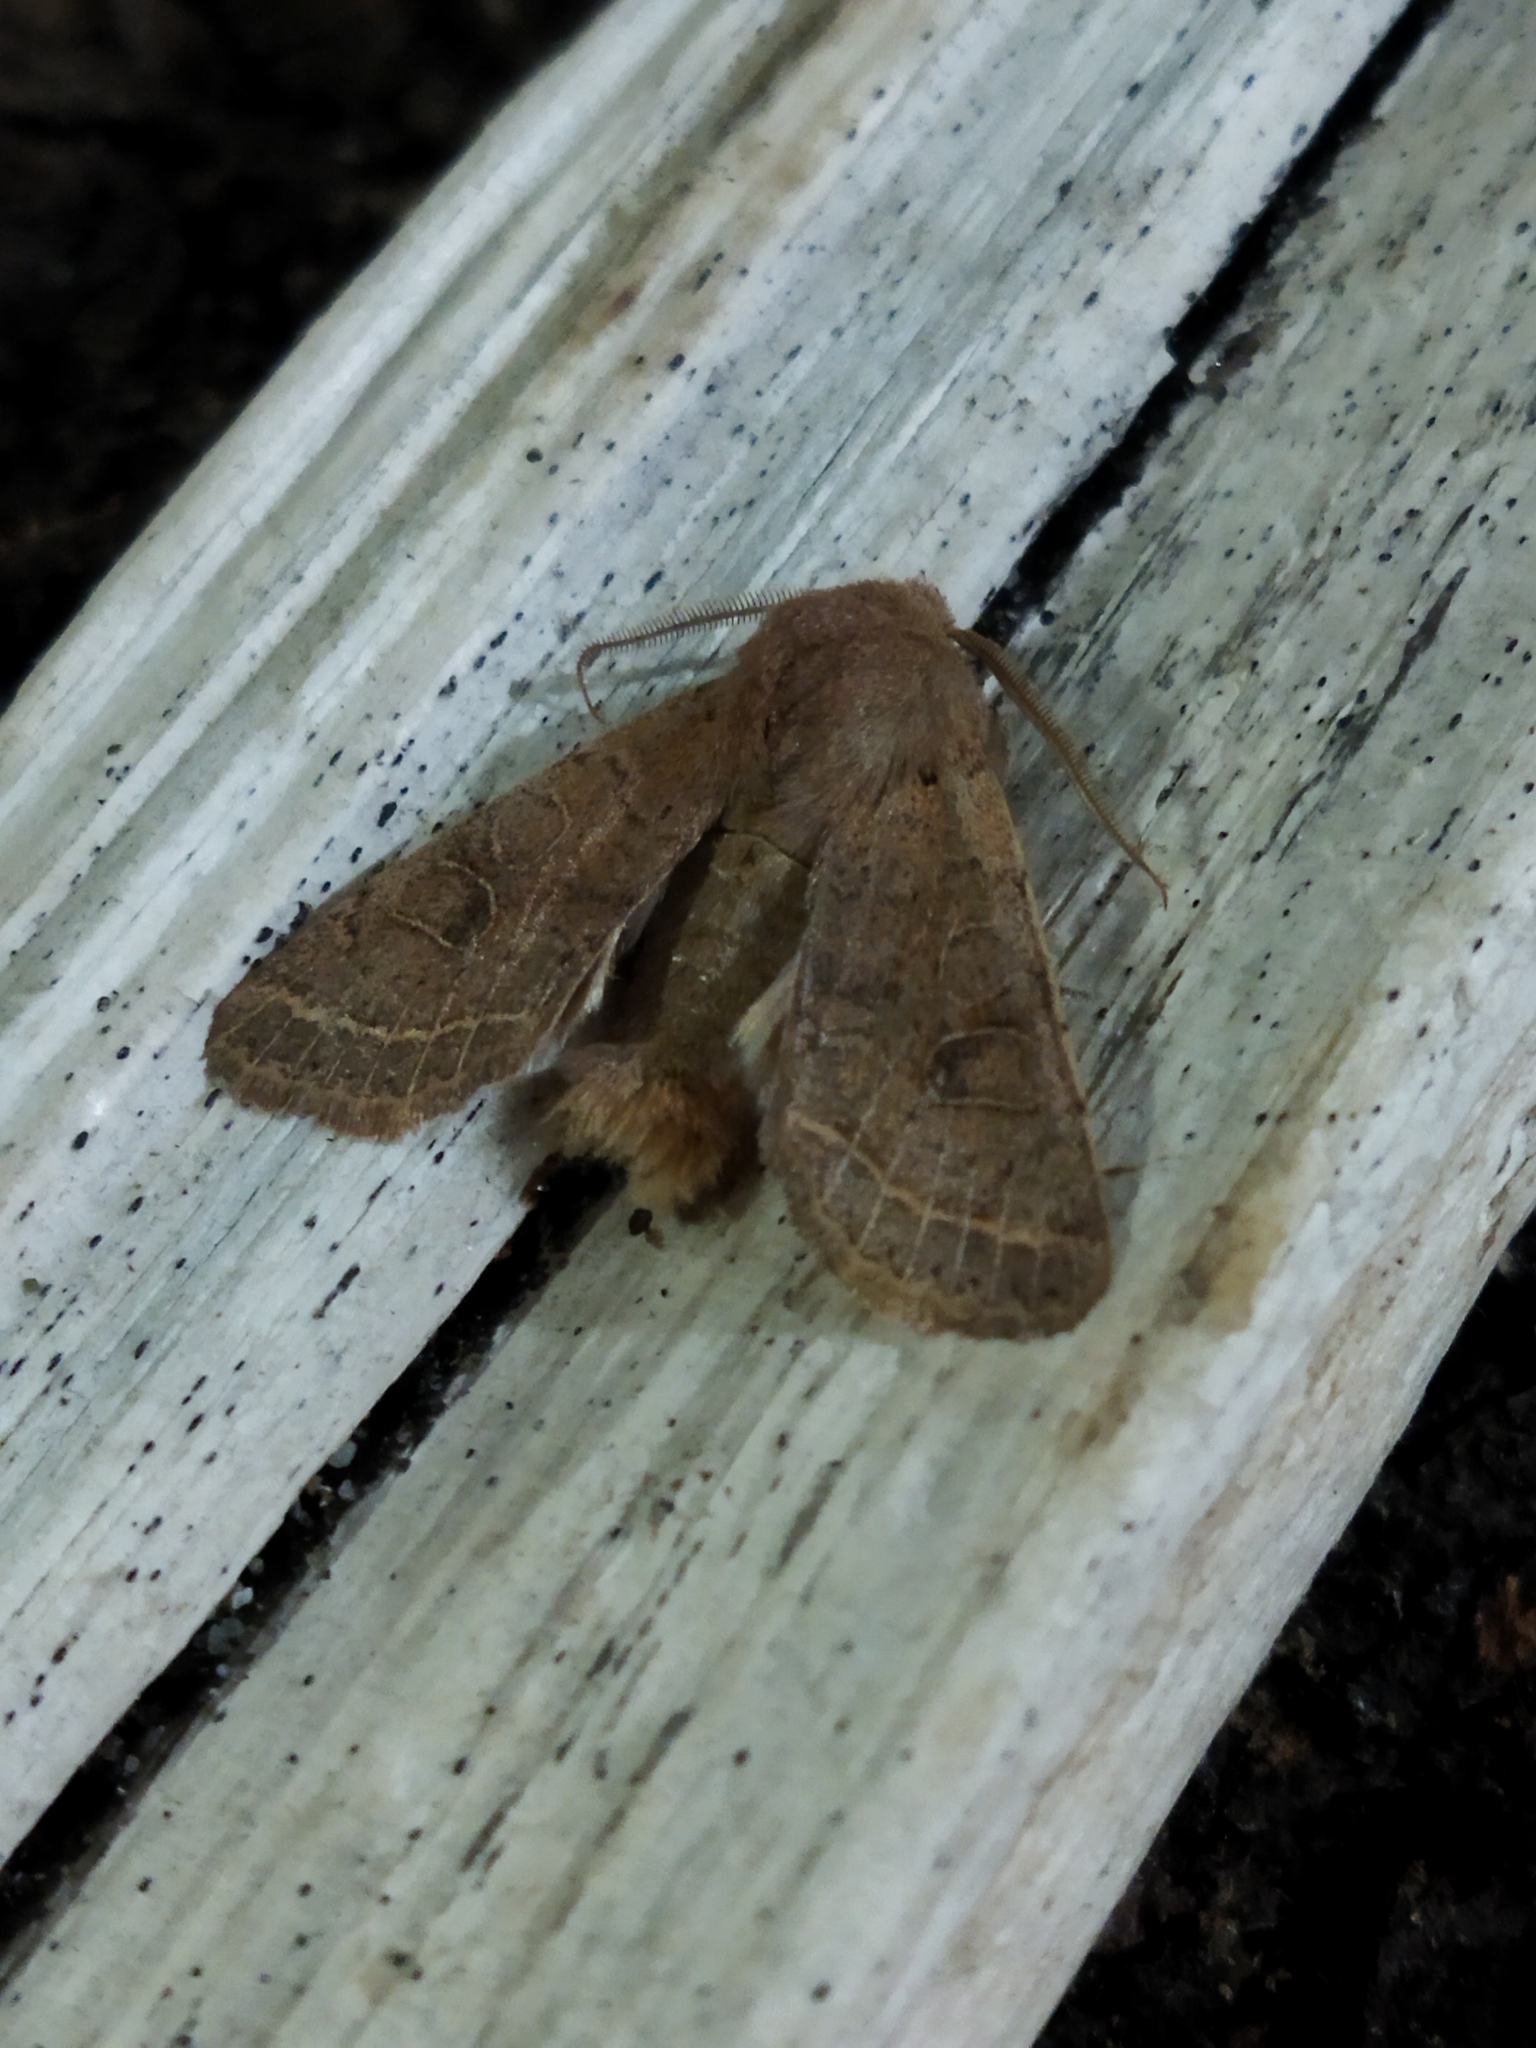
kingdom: Animalia
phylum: Arthropoda
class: Insecta
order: Lepidoptera
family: Noctuidae
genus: Orthosia
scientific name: Orthosia cerasi
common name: Common quaker
